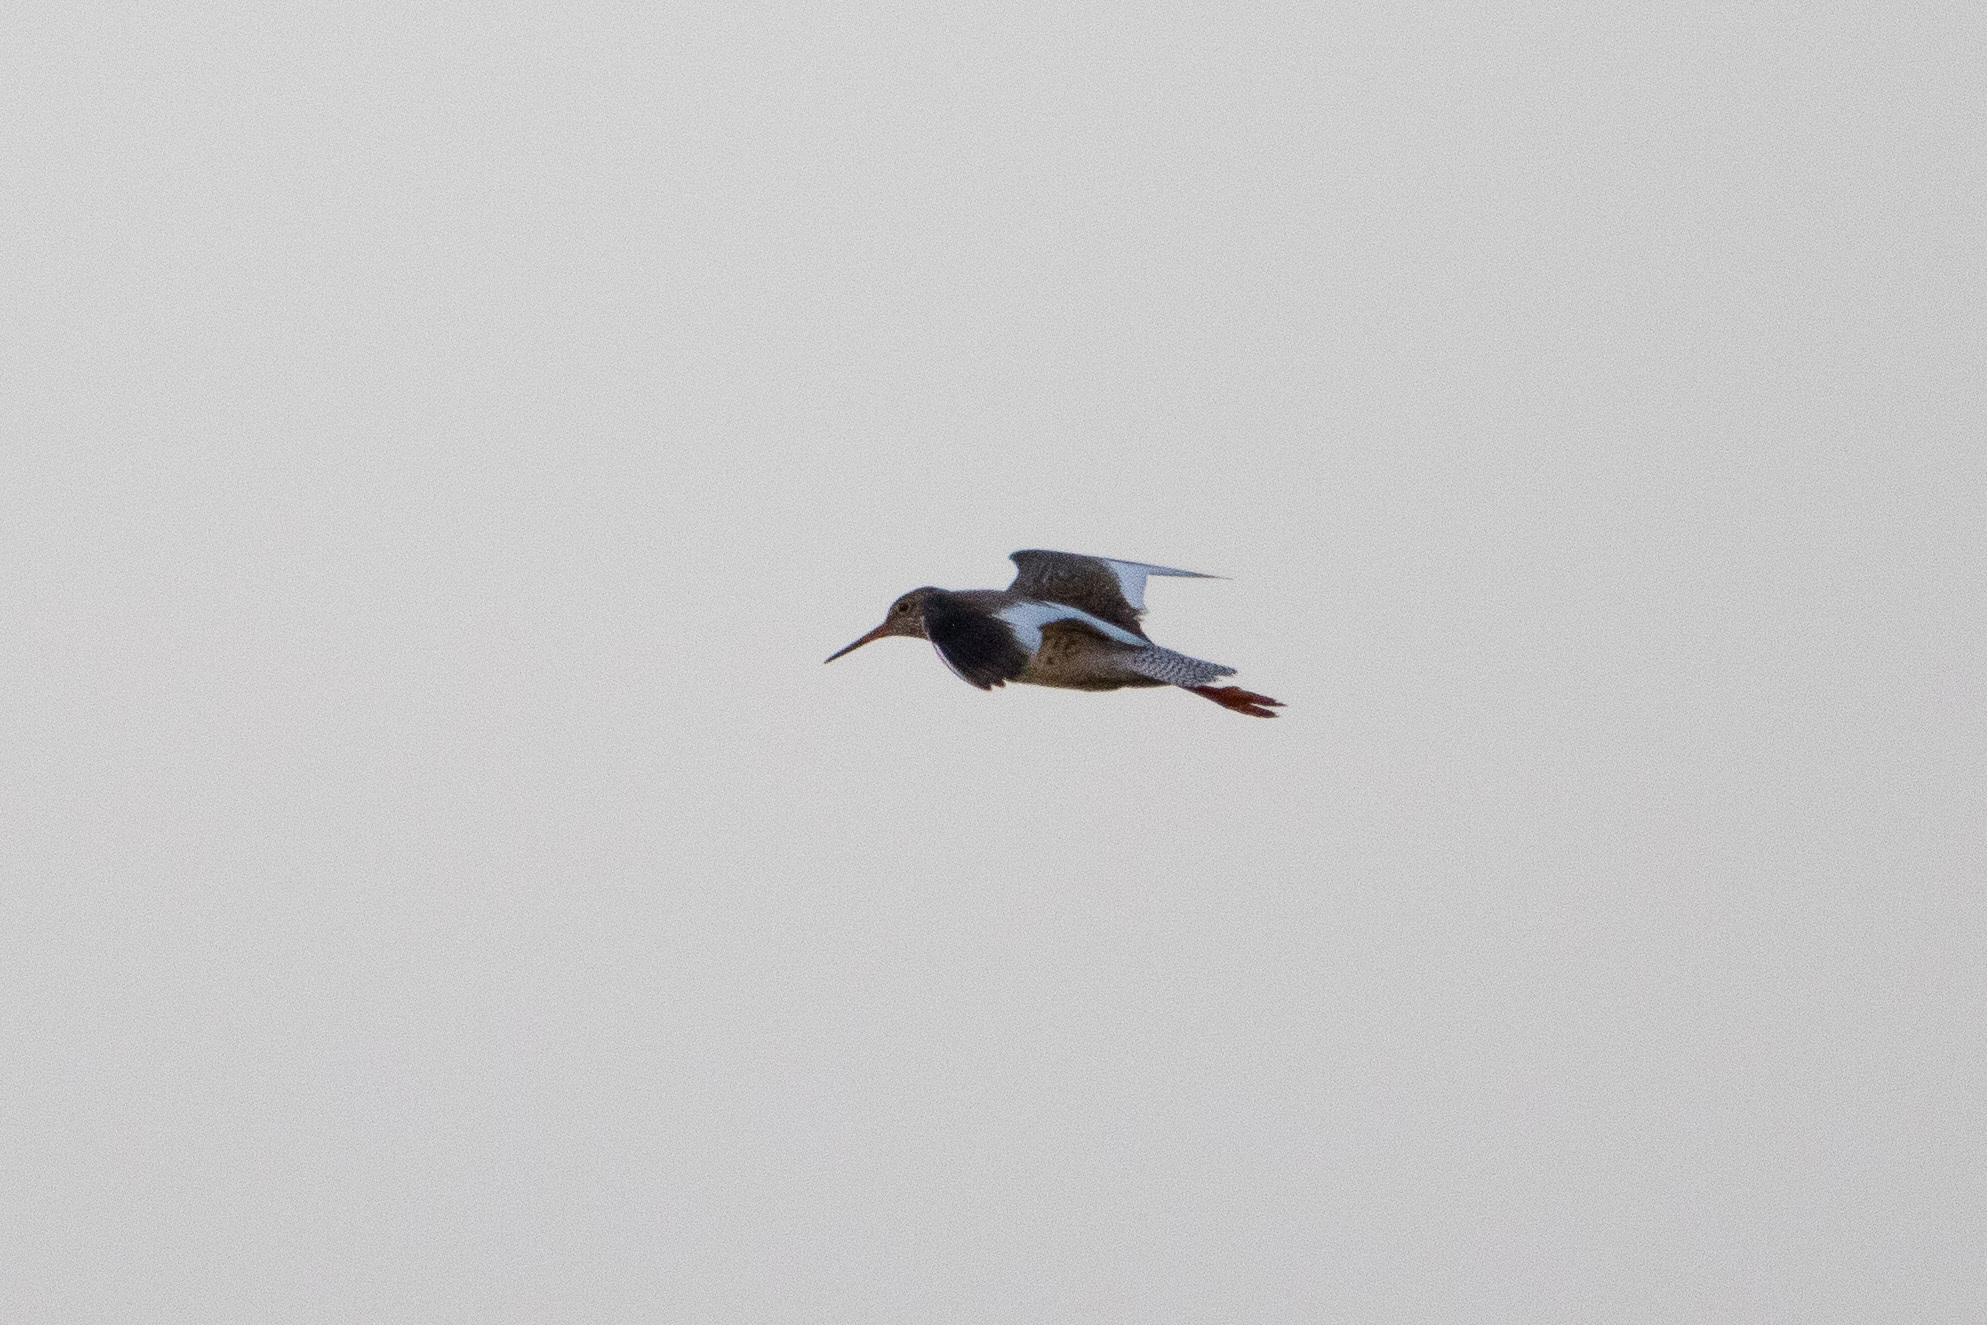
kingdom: Animalia
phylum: Chordata
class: Aves
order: Charadriiformes
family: Scolopacidae
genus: Tringa
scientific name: Tringa totanus
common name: Common redshank
